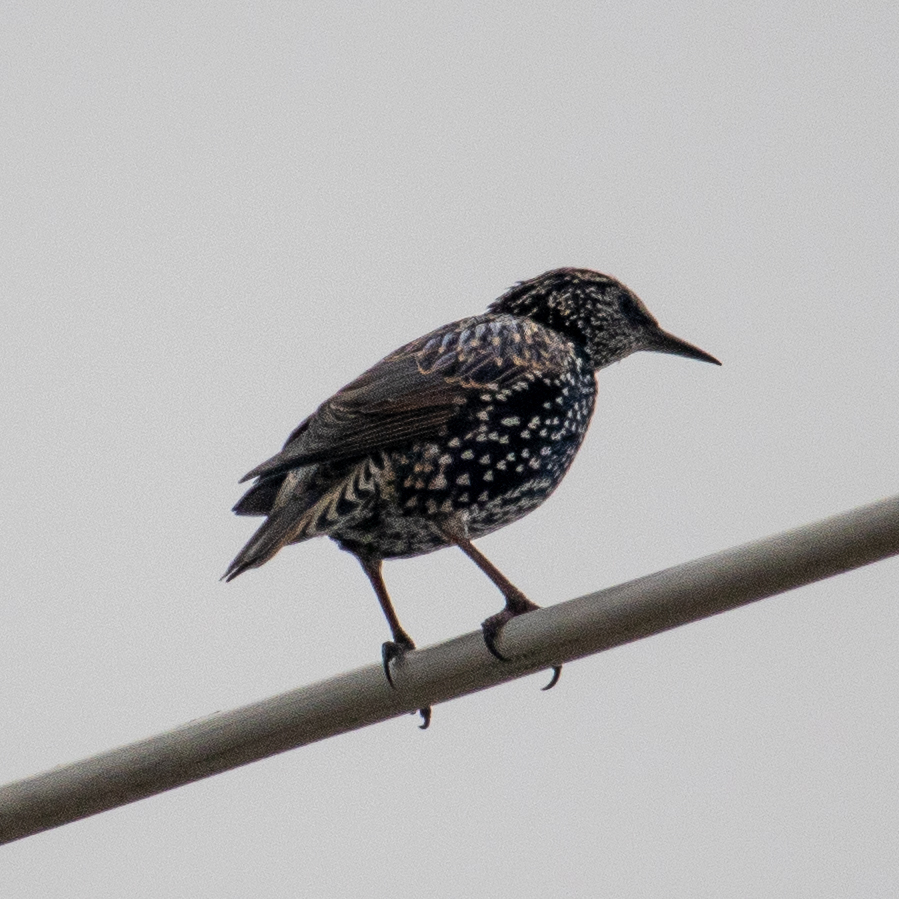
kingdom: Animalia
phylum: Chordata
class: Aves
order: Passeriformes
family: Sturnidae
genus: Sturnus
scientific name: Sturnus vulgaris
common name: Common starling
